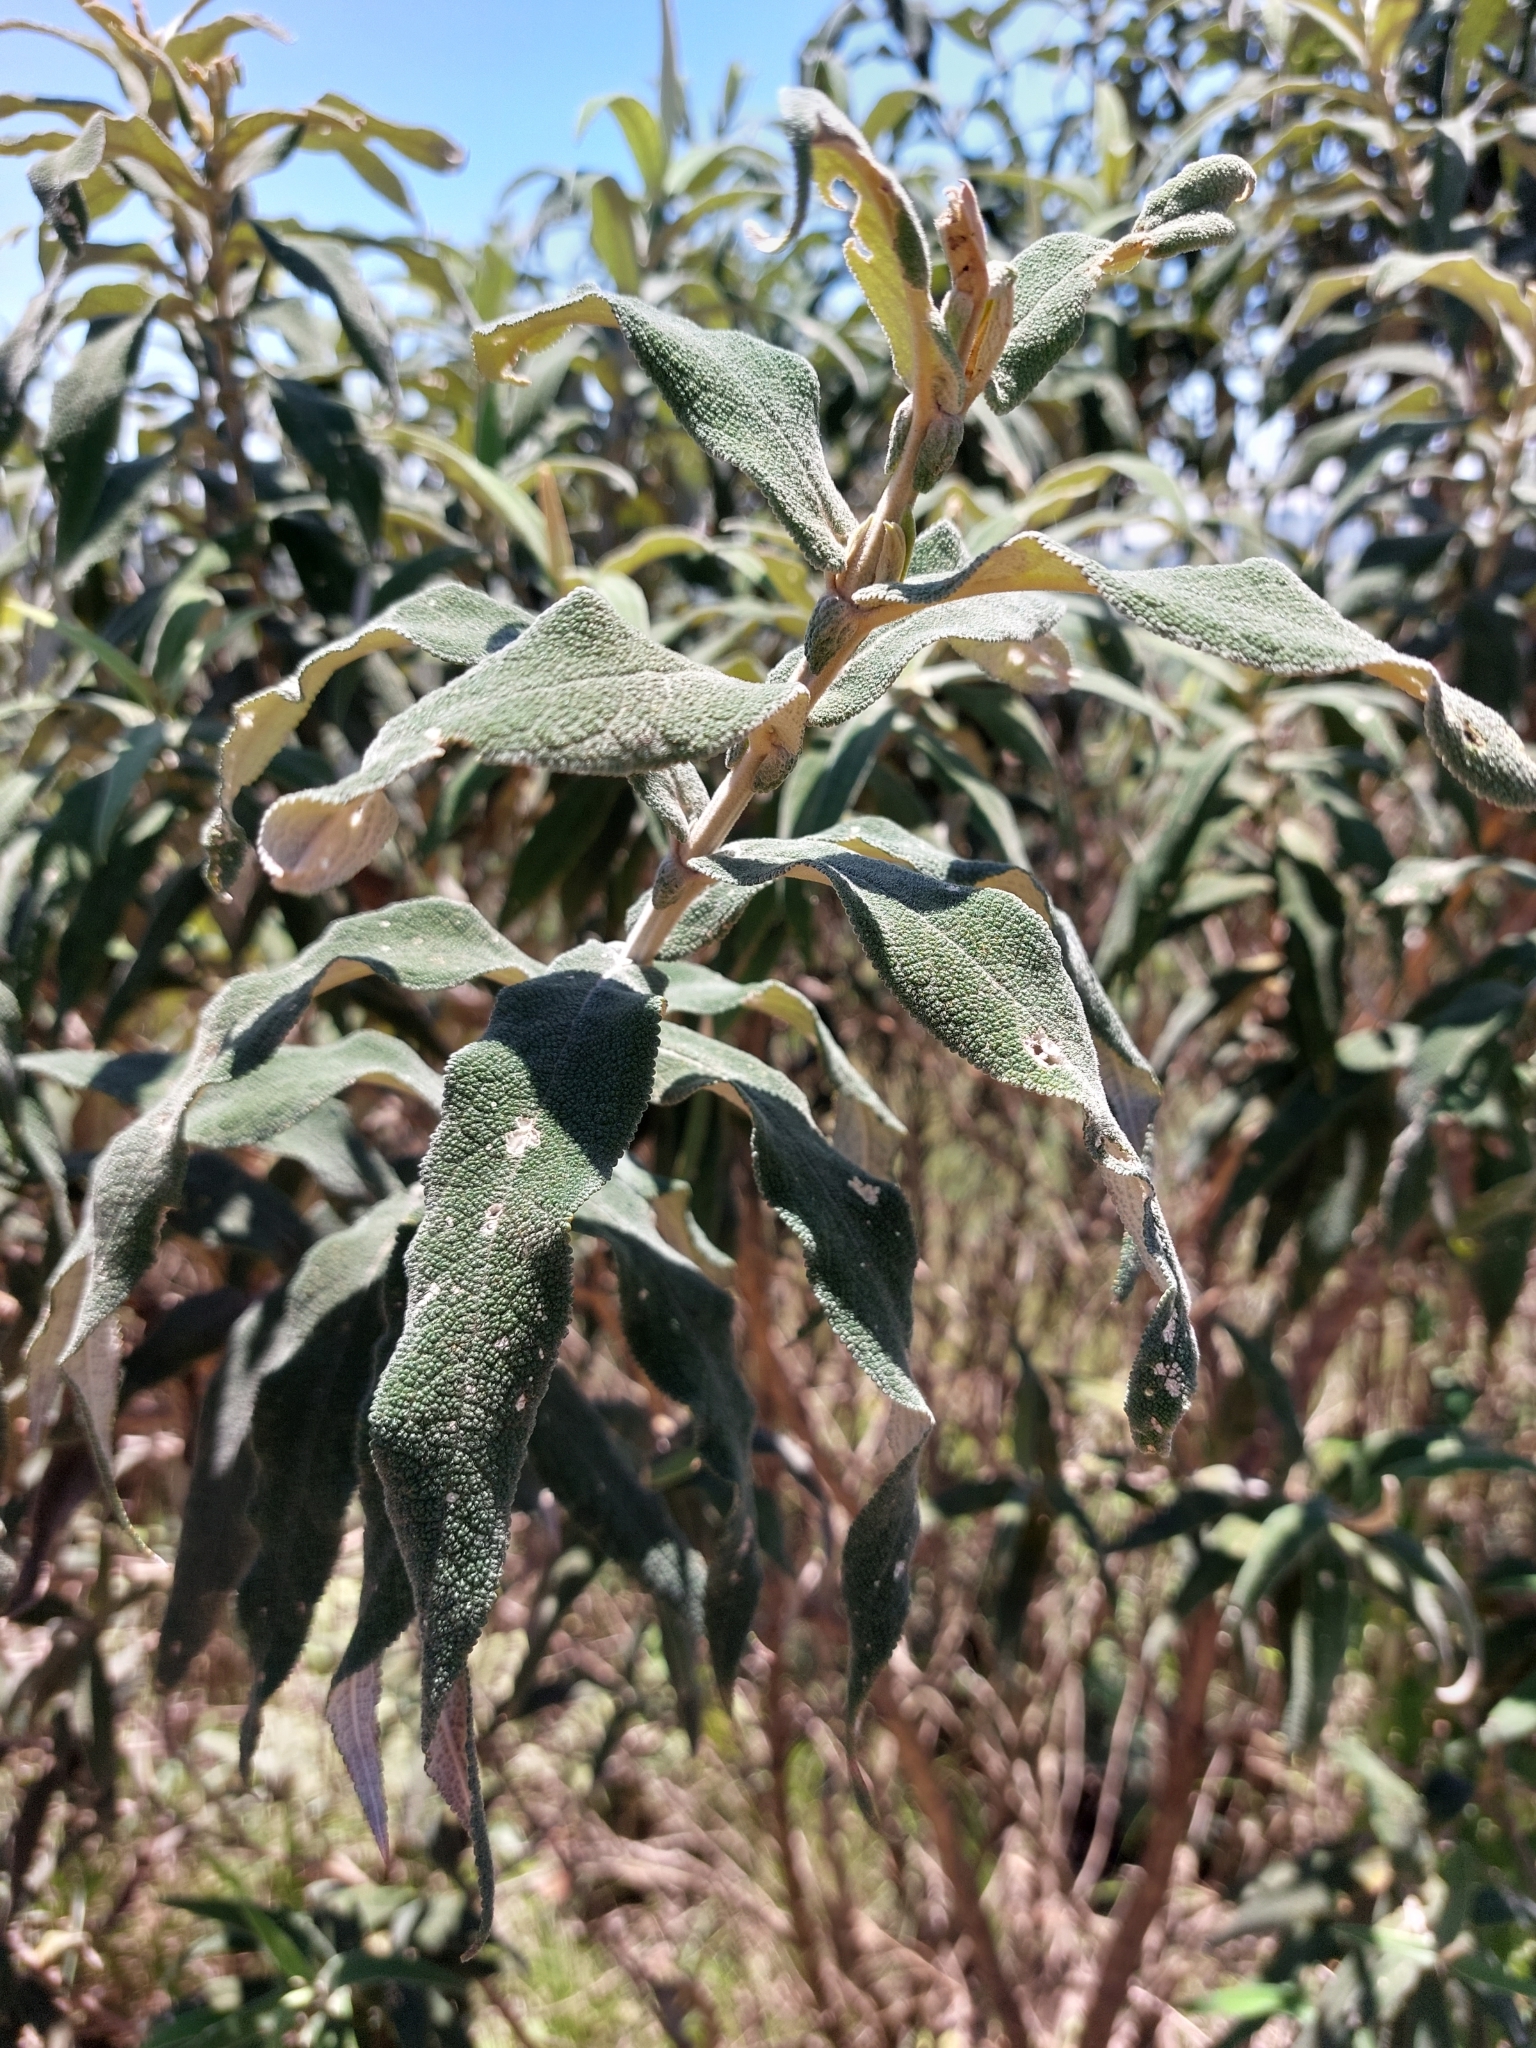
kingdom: Plantae
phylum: Tracheophyta
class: Magnoliopsida
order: Lamiales
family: Scrophulariaceae
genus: Buddleja
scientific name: Buddleja salviifolia
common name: Sagewood
